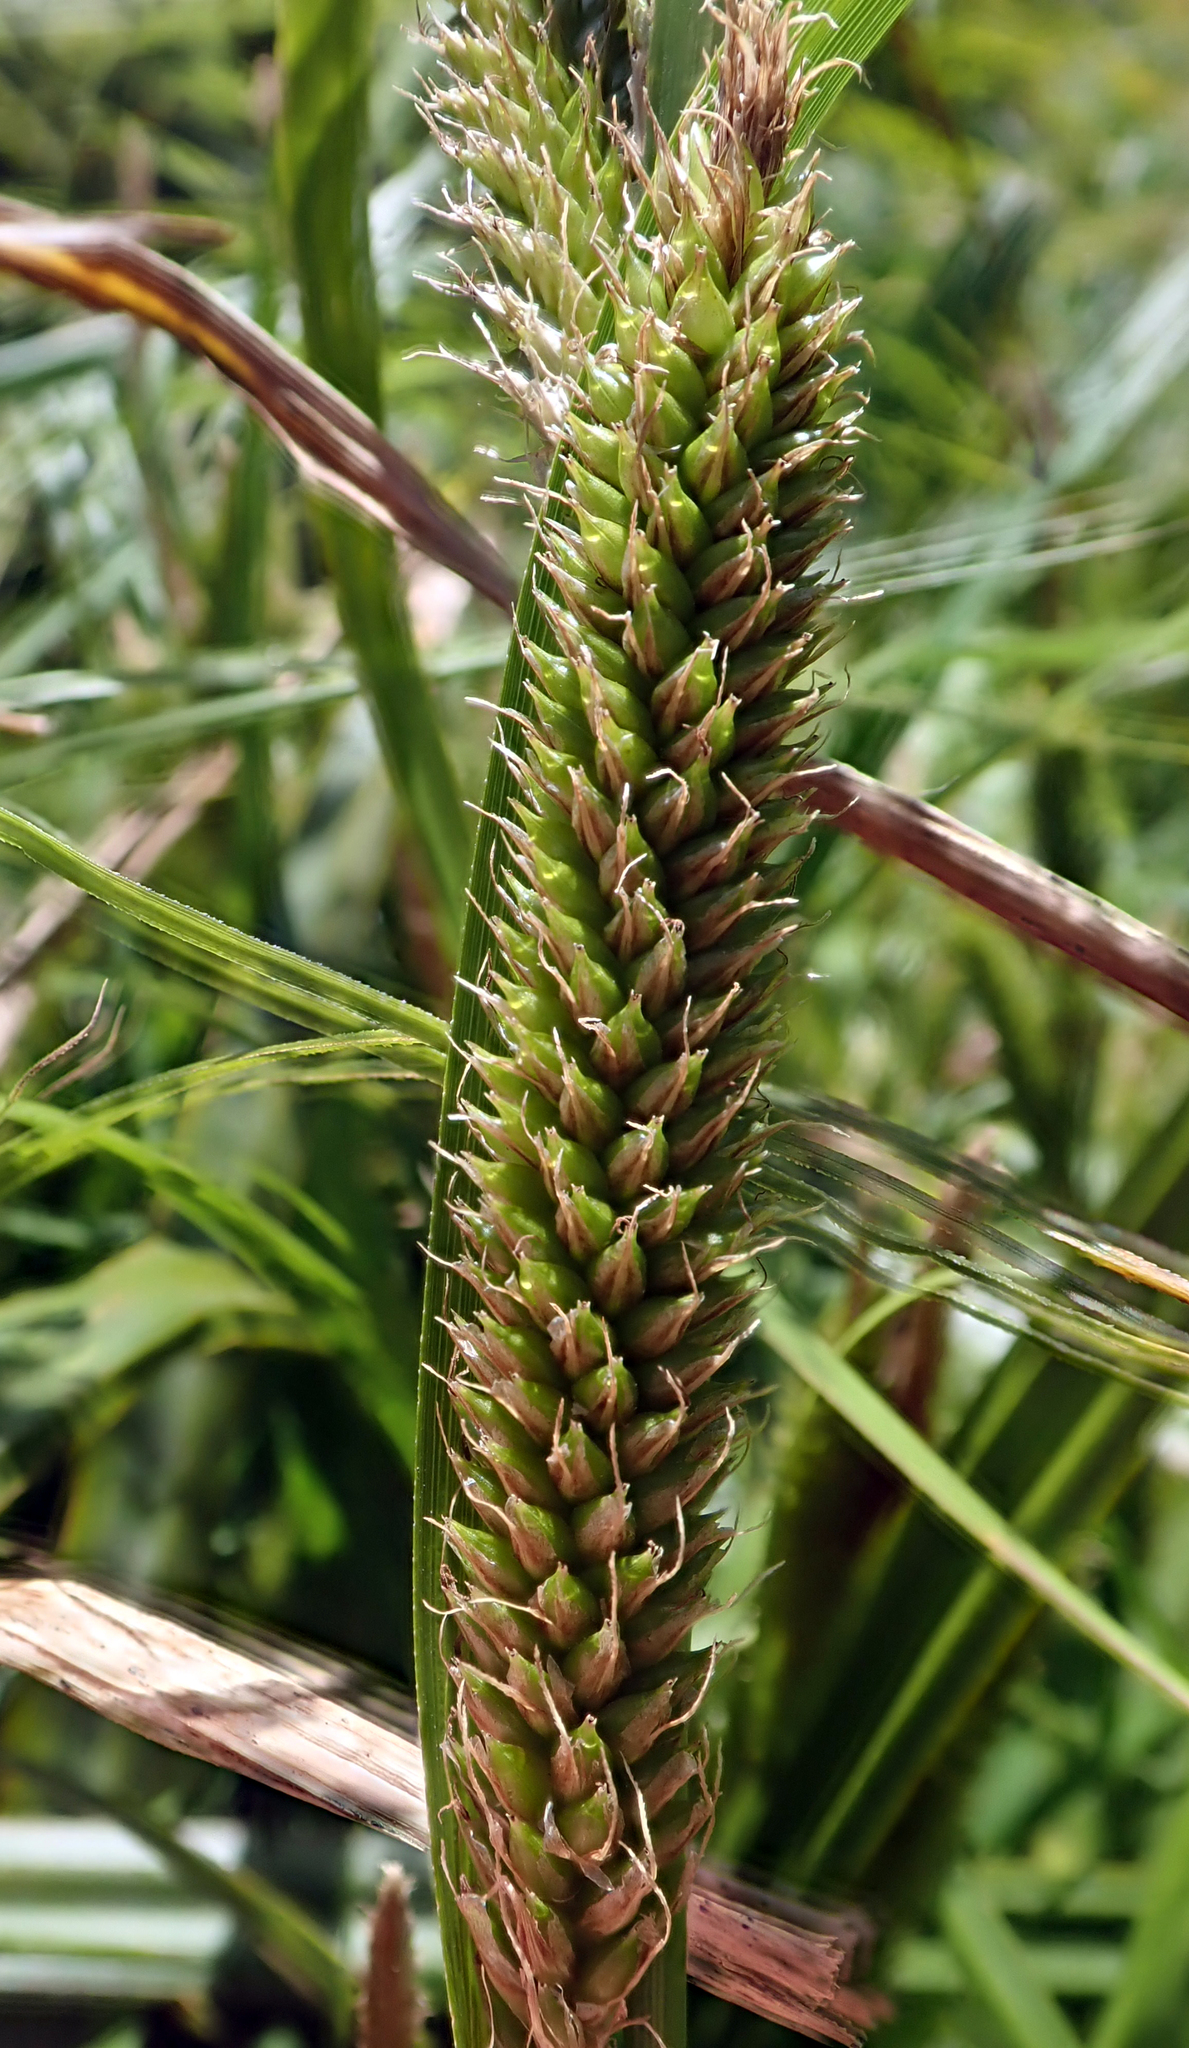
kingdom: Plantae
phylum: Tracheophyta
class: Liliopsida
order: Poales
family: Cyperaceae
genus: Carex
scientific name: Carex ventosa
